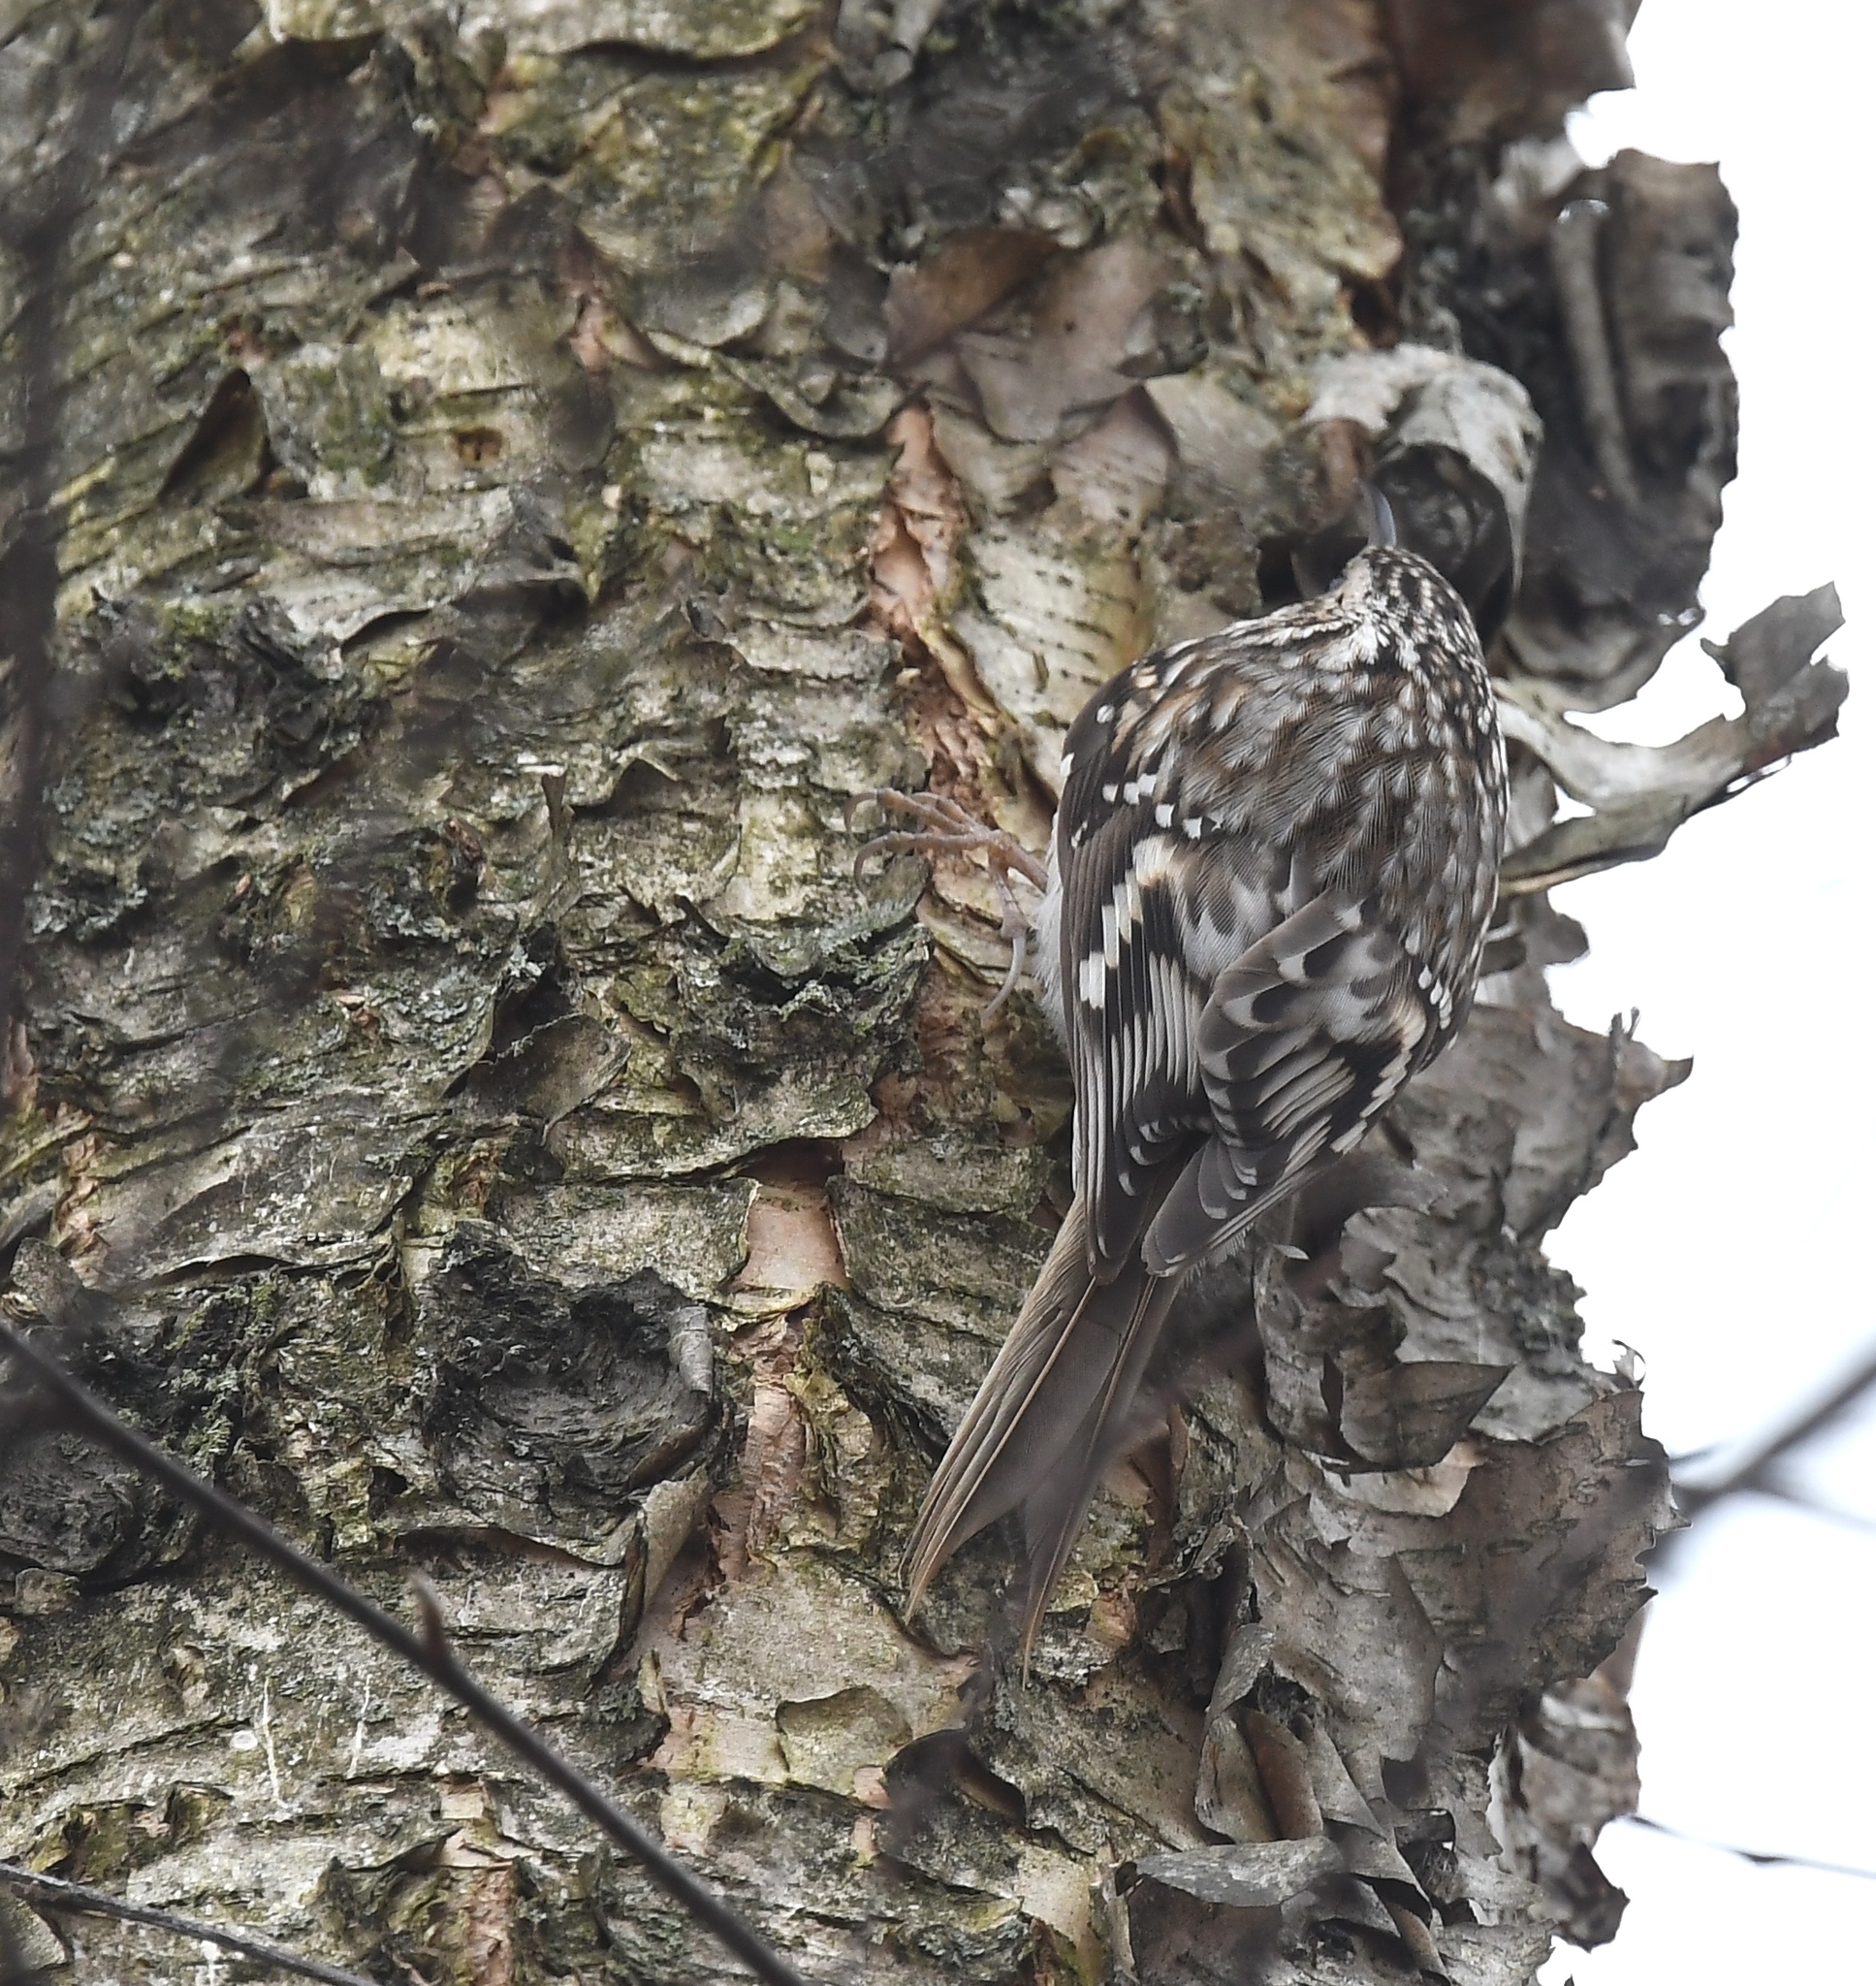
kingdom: Animalia
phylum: Chordata
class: Aves
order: Passeriformes
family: Certhiidae
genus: Certhia
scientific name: Certhia americana
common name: Brown creeper
